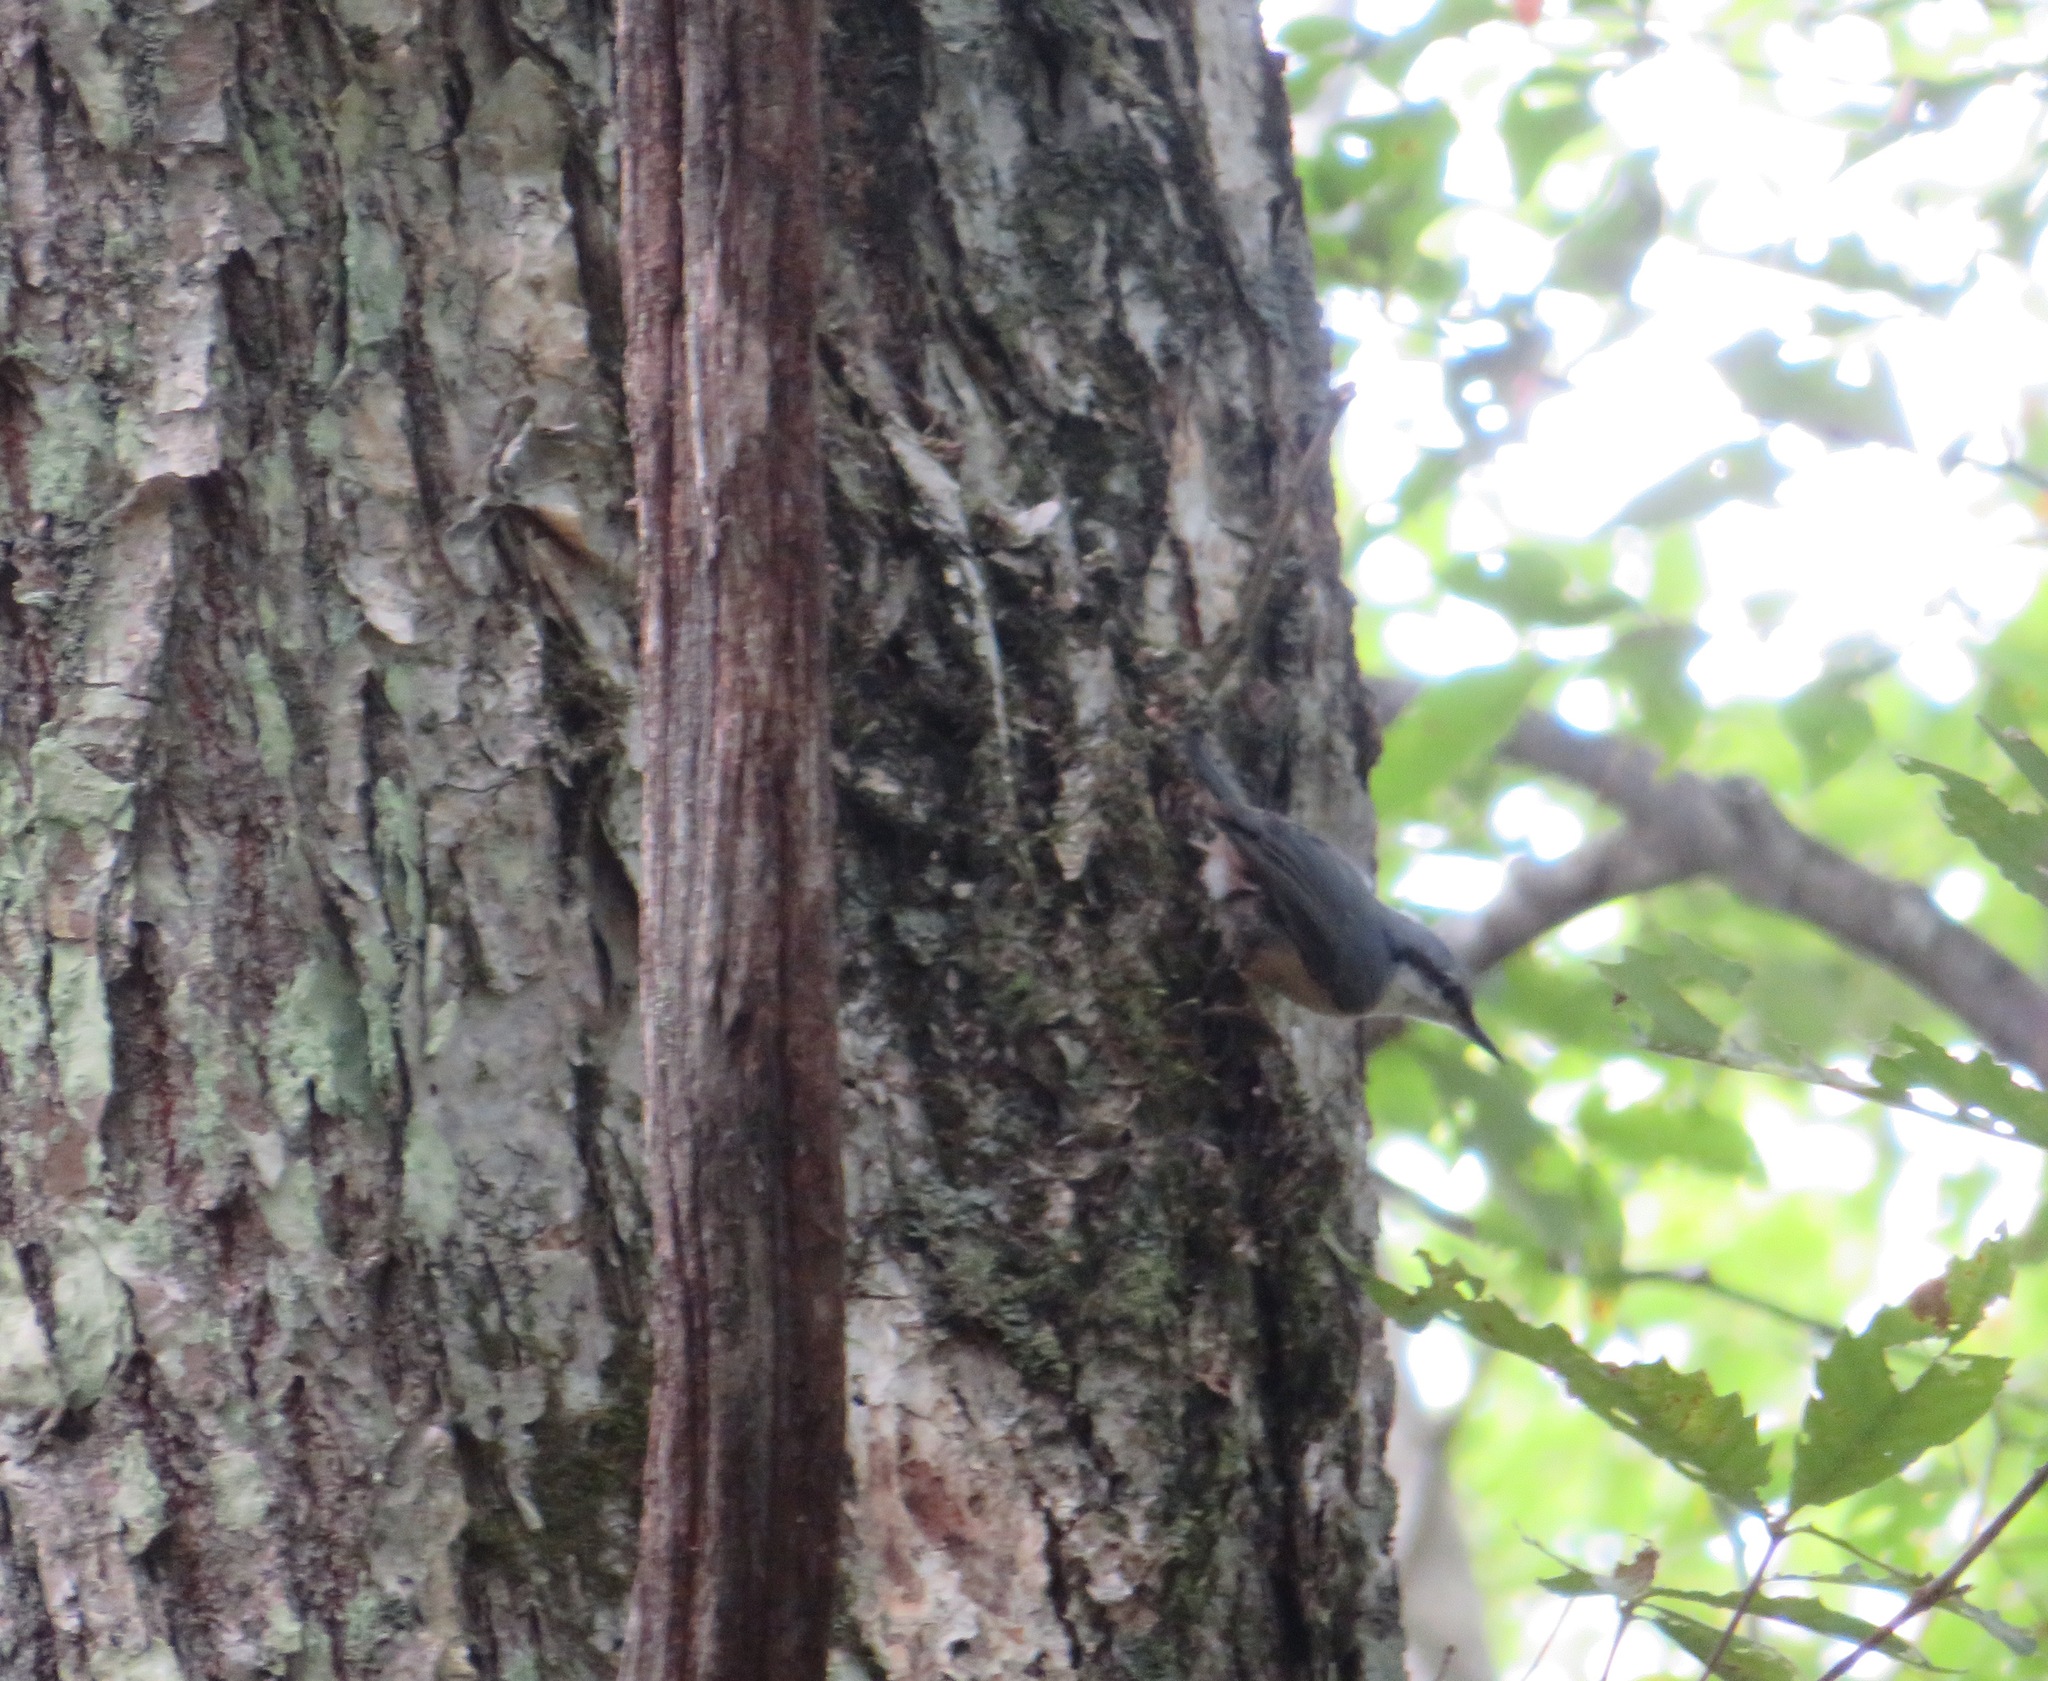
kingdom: Animalia
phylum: Chordata
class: Aves
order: Passeriformes
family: Sittidae
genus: Sitta
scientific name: Sitta europaea
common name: Eurasian nuthatch
